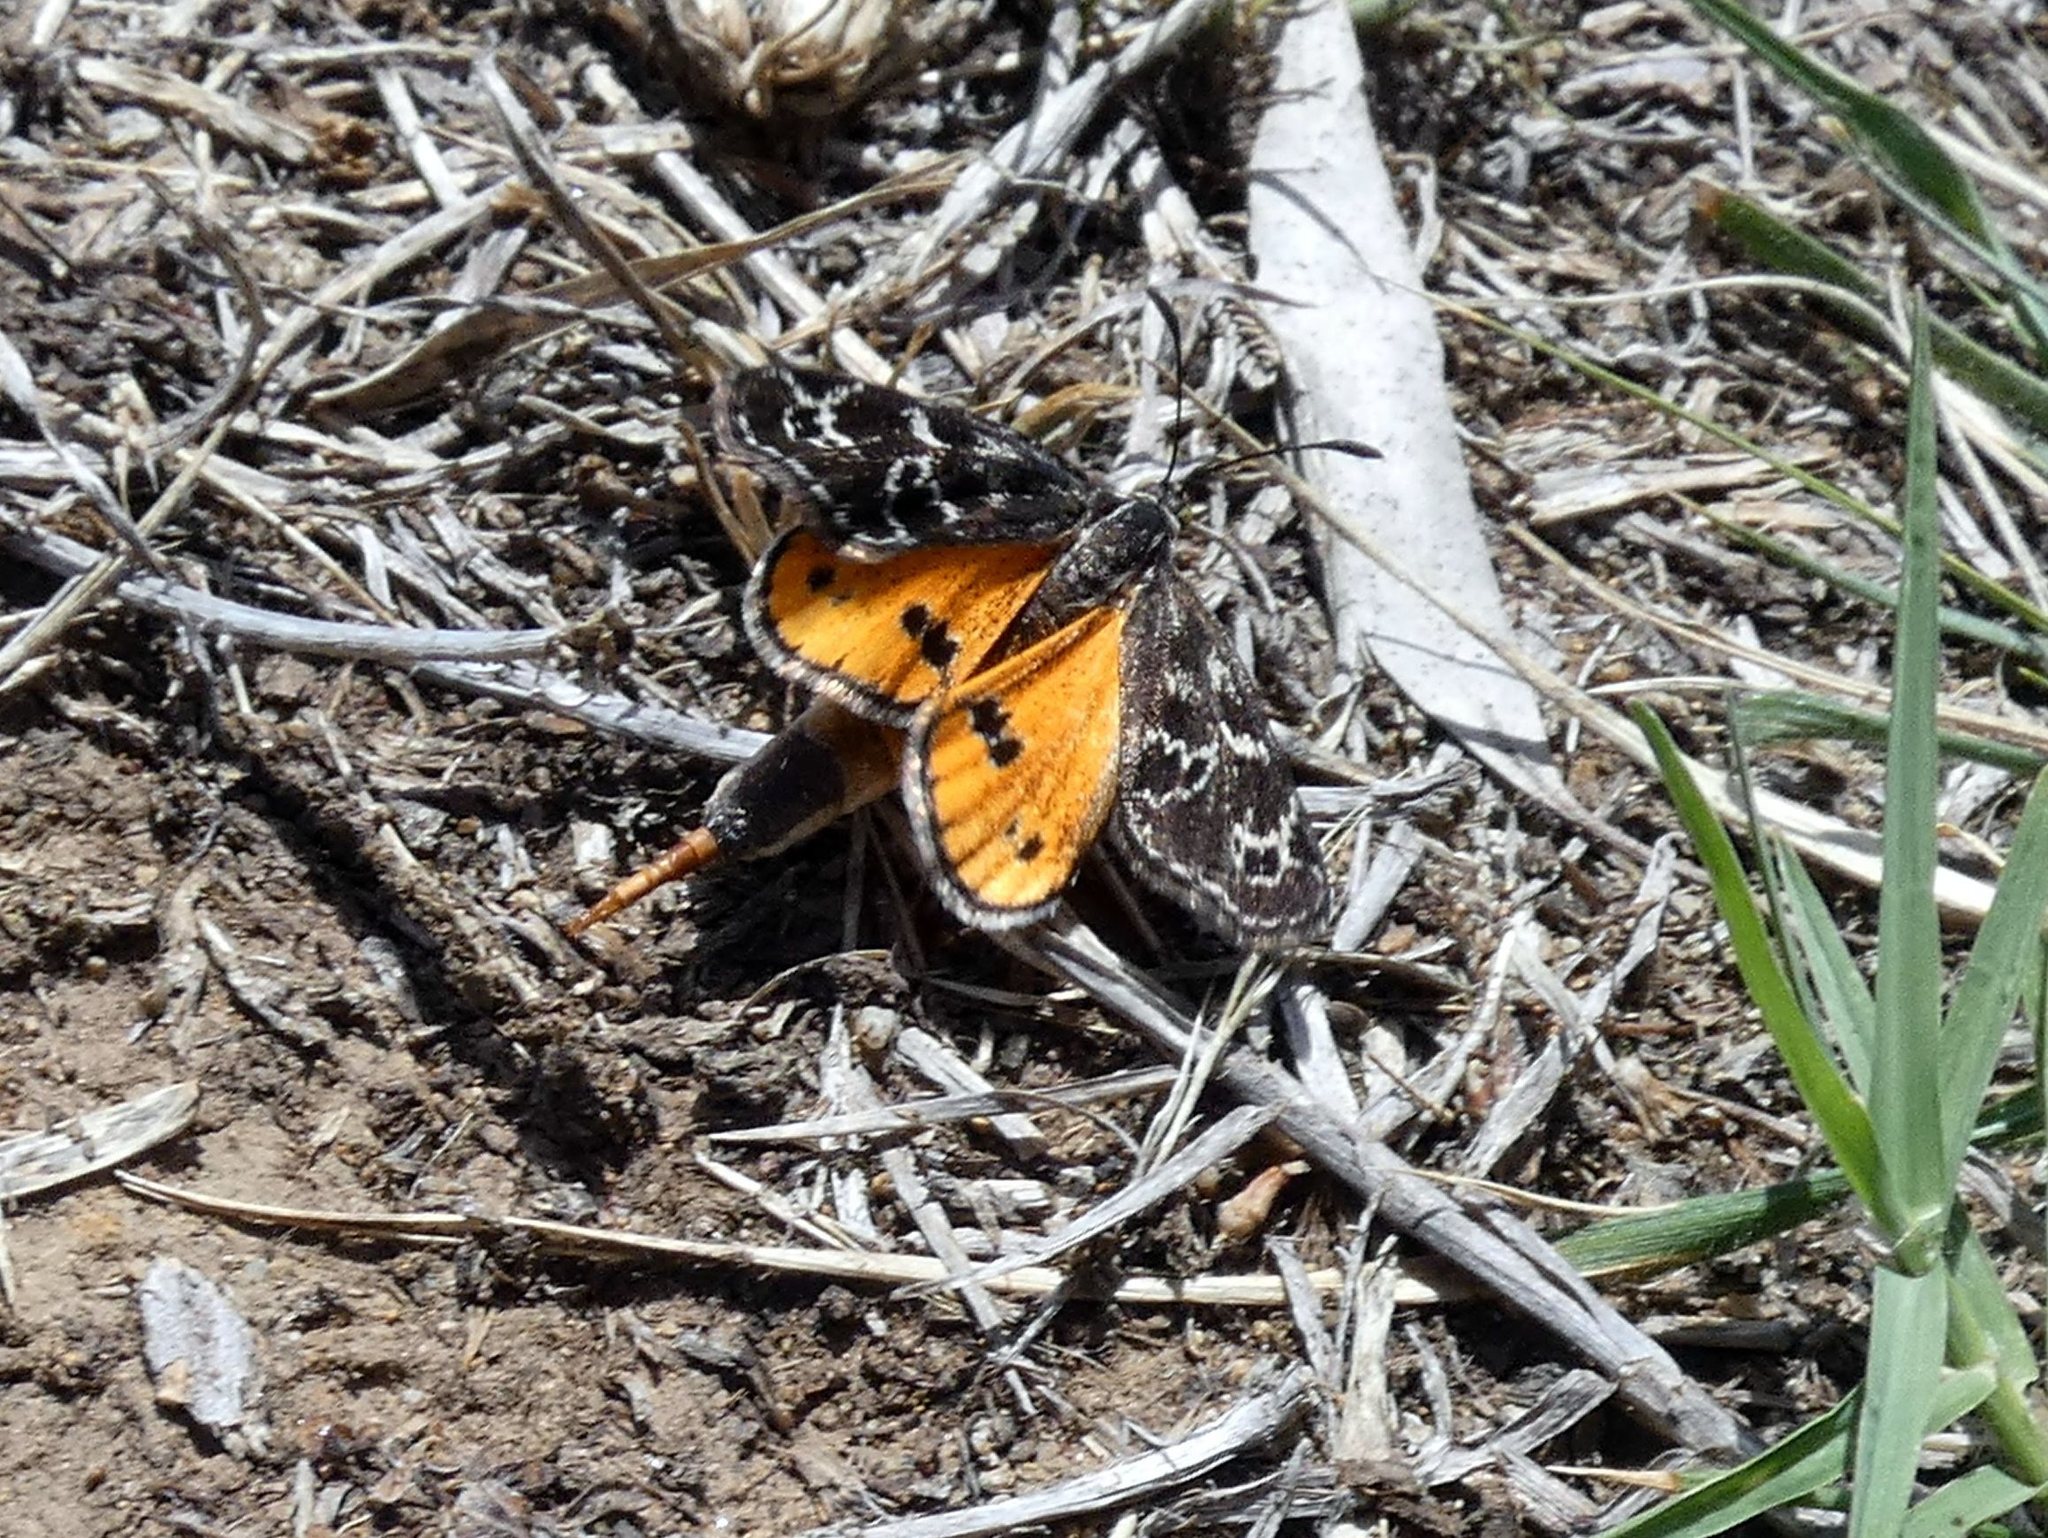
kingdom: Animalia
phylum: Arthropoda
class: Insecta
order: Lepidoptera
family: Castniidae
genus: Synemon
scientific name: Synemon plana
